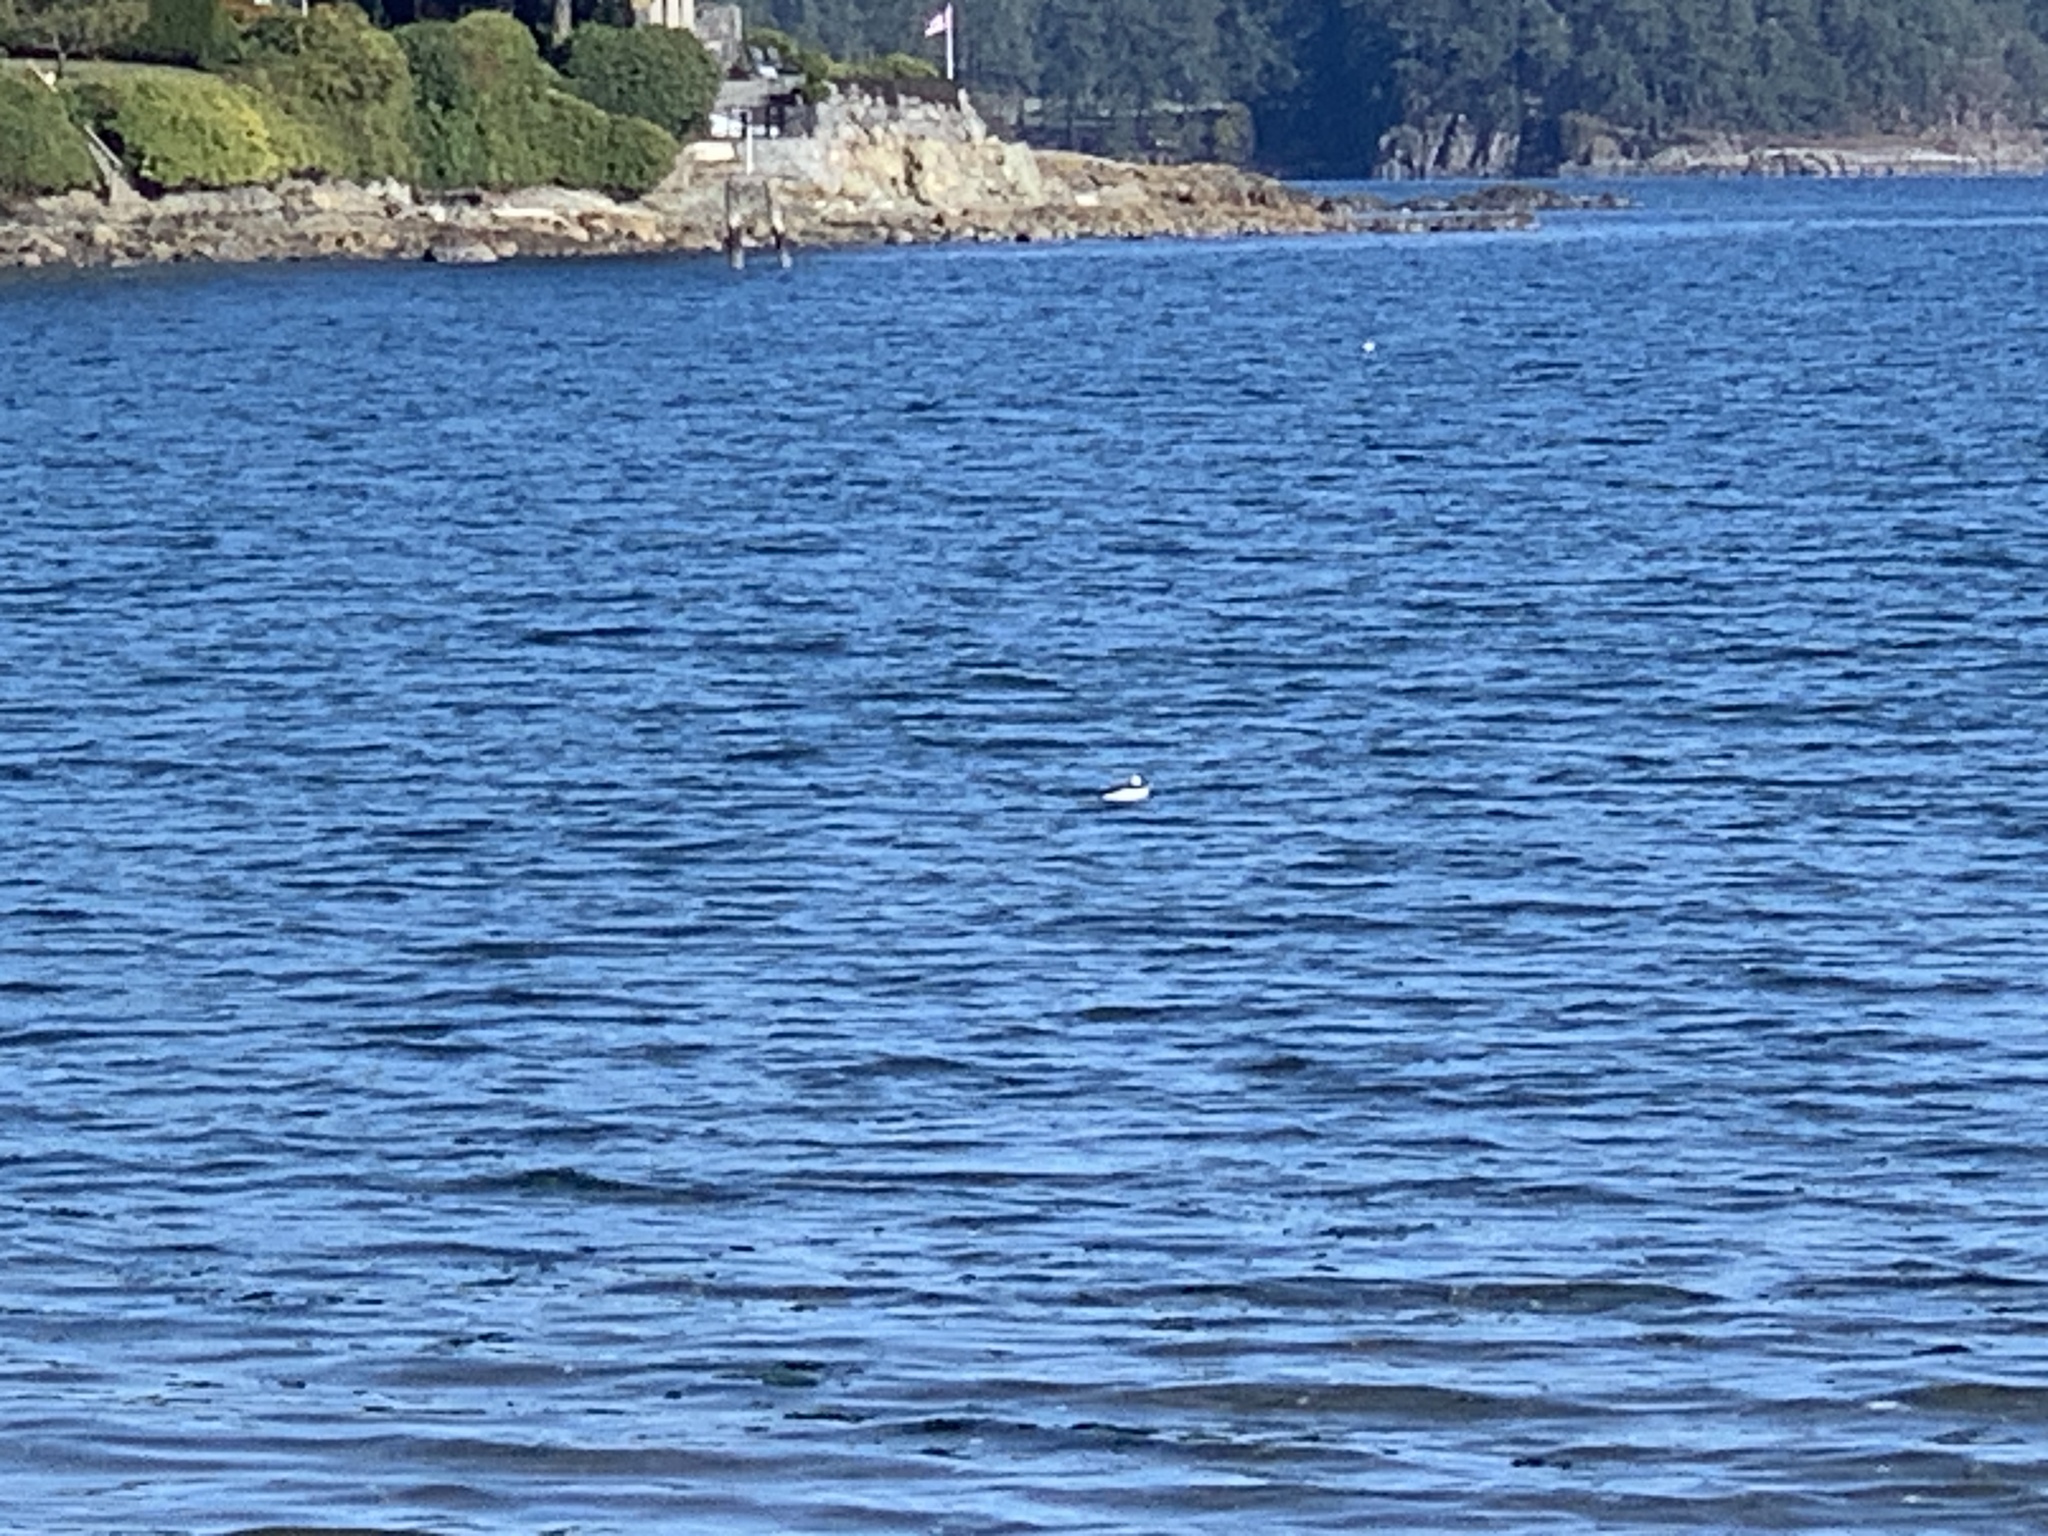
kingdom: Animalia
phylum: Chordata
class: Aves
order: Anseriformes
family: Anatidae
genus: Bucephala
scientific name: Bucephala albeola
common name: Bufflehead
